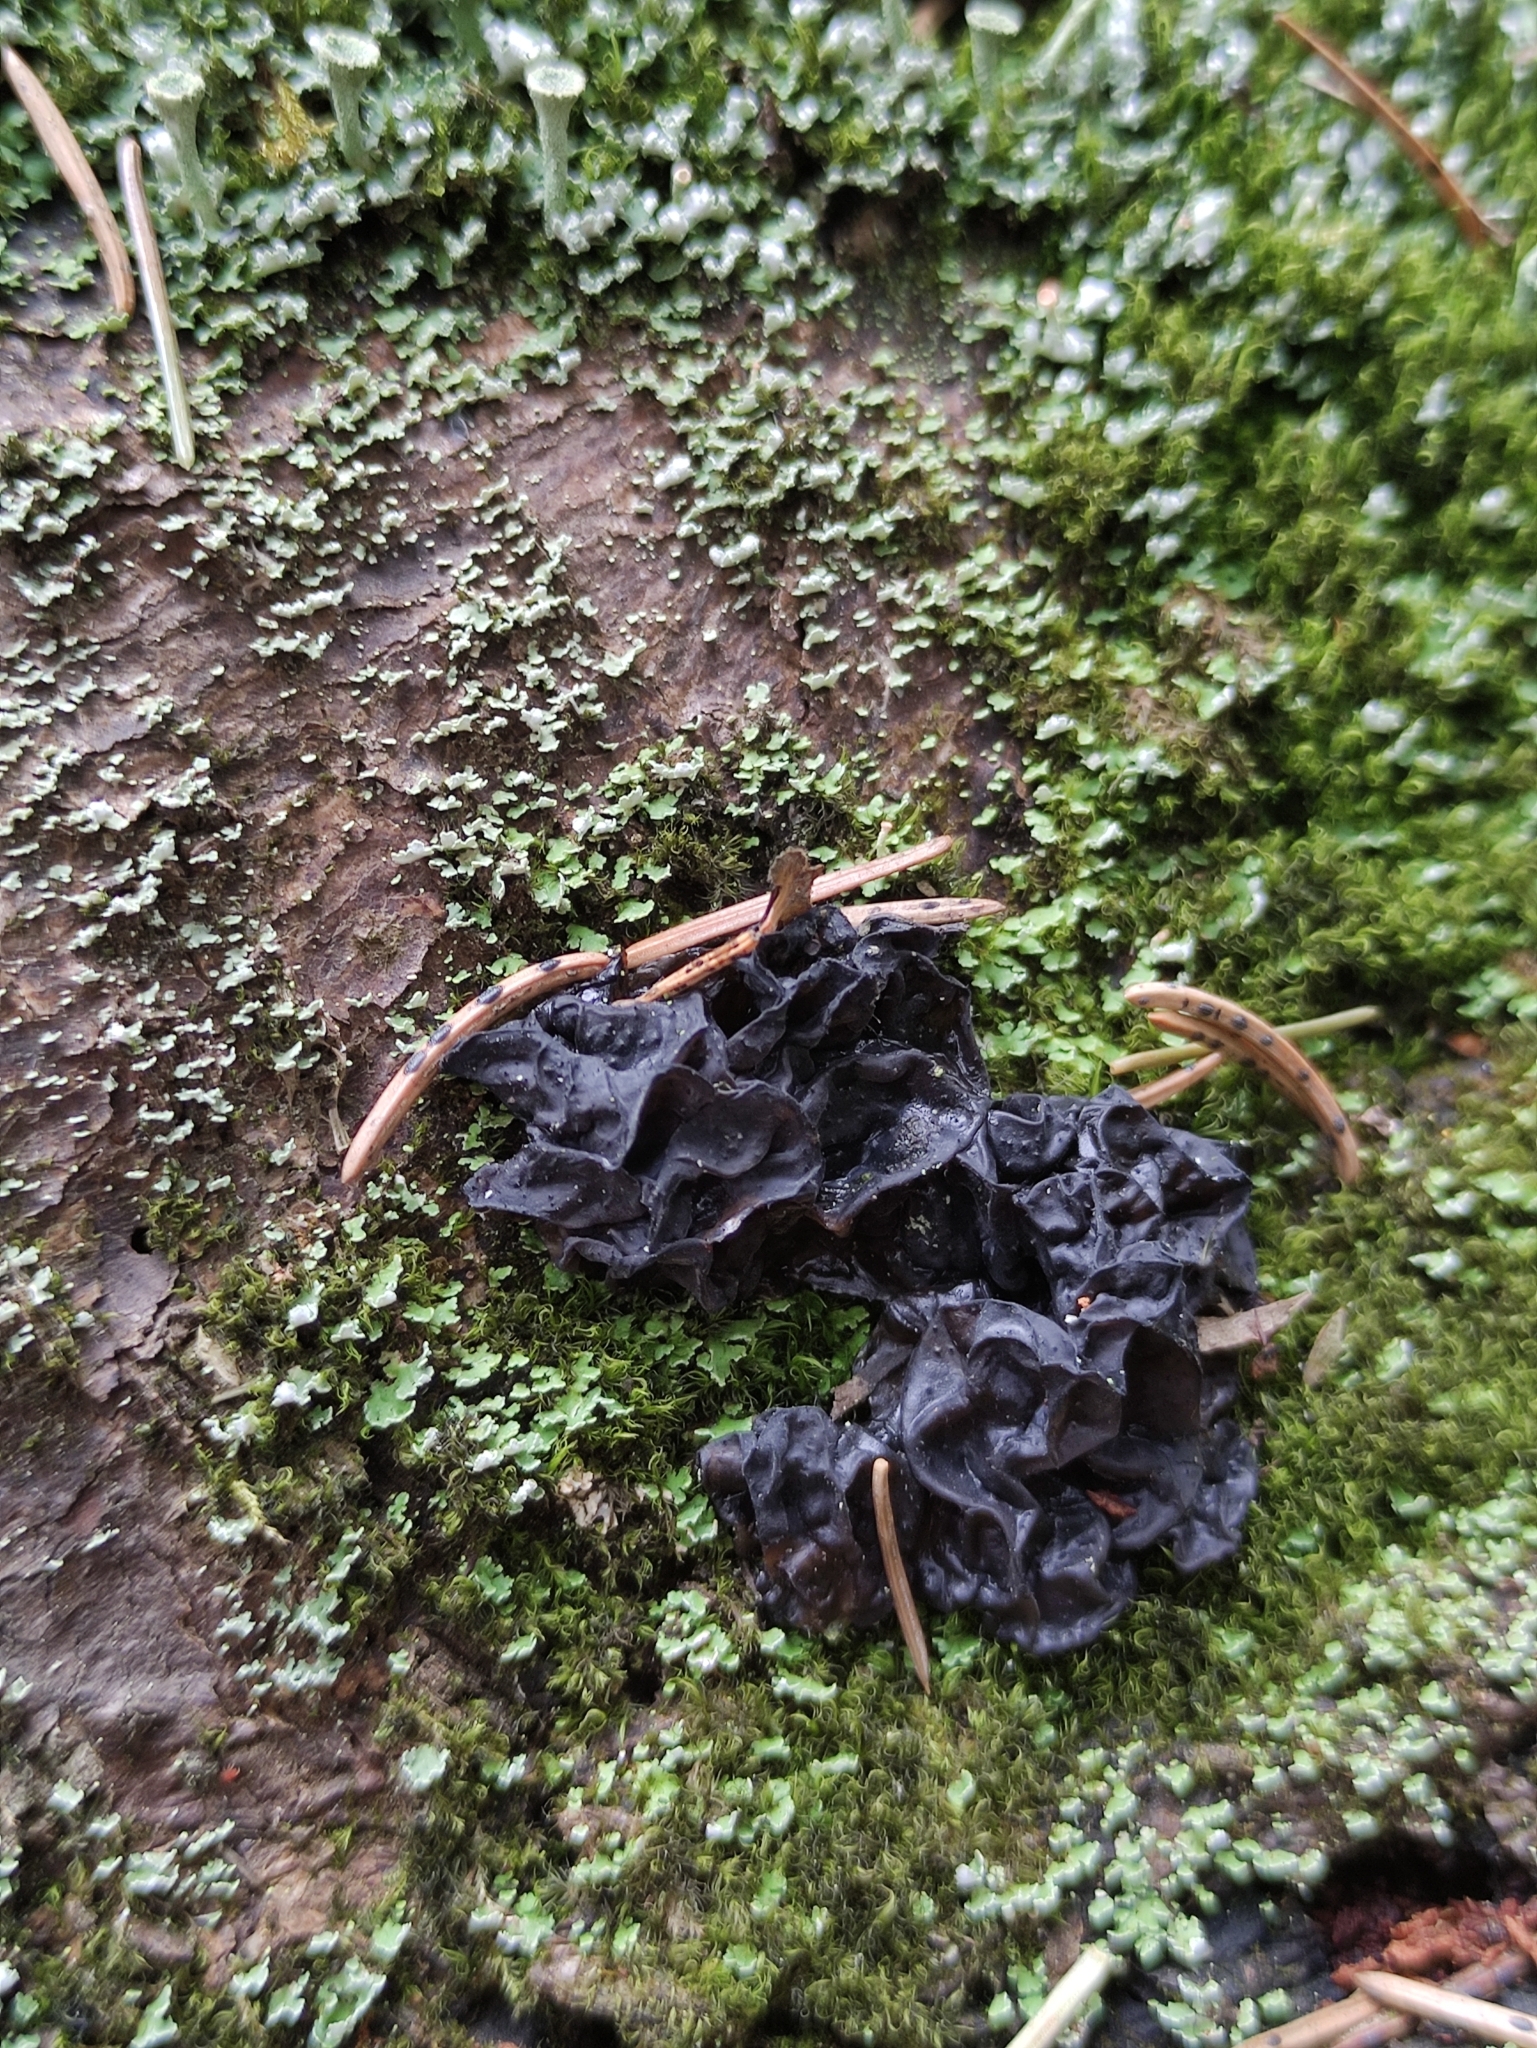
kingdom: Fungi
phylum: Basidiomycota
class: Agaricomycetes
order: Auriculariales
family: Auriculariaceae
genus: Exidia
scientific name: Exidia nigricans
